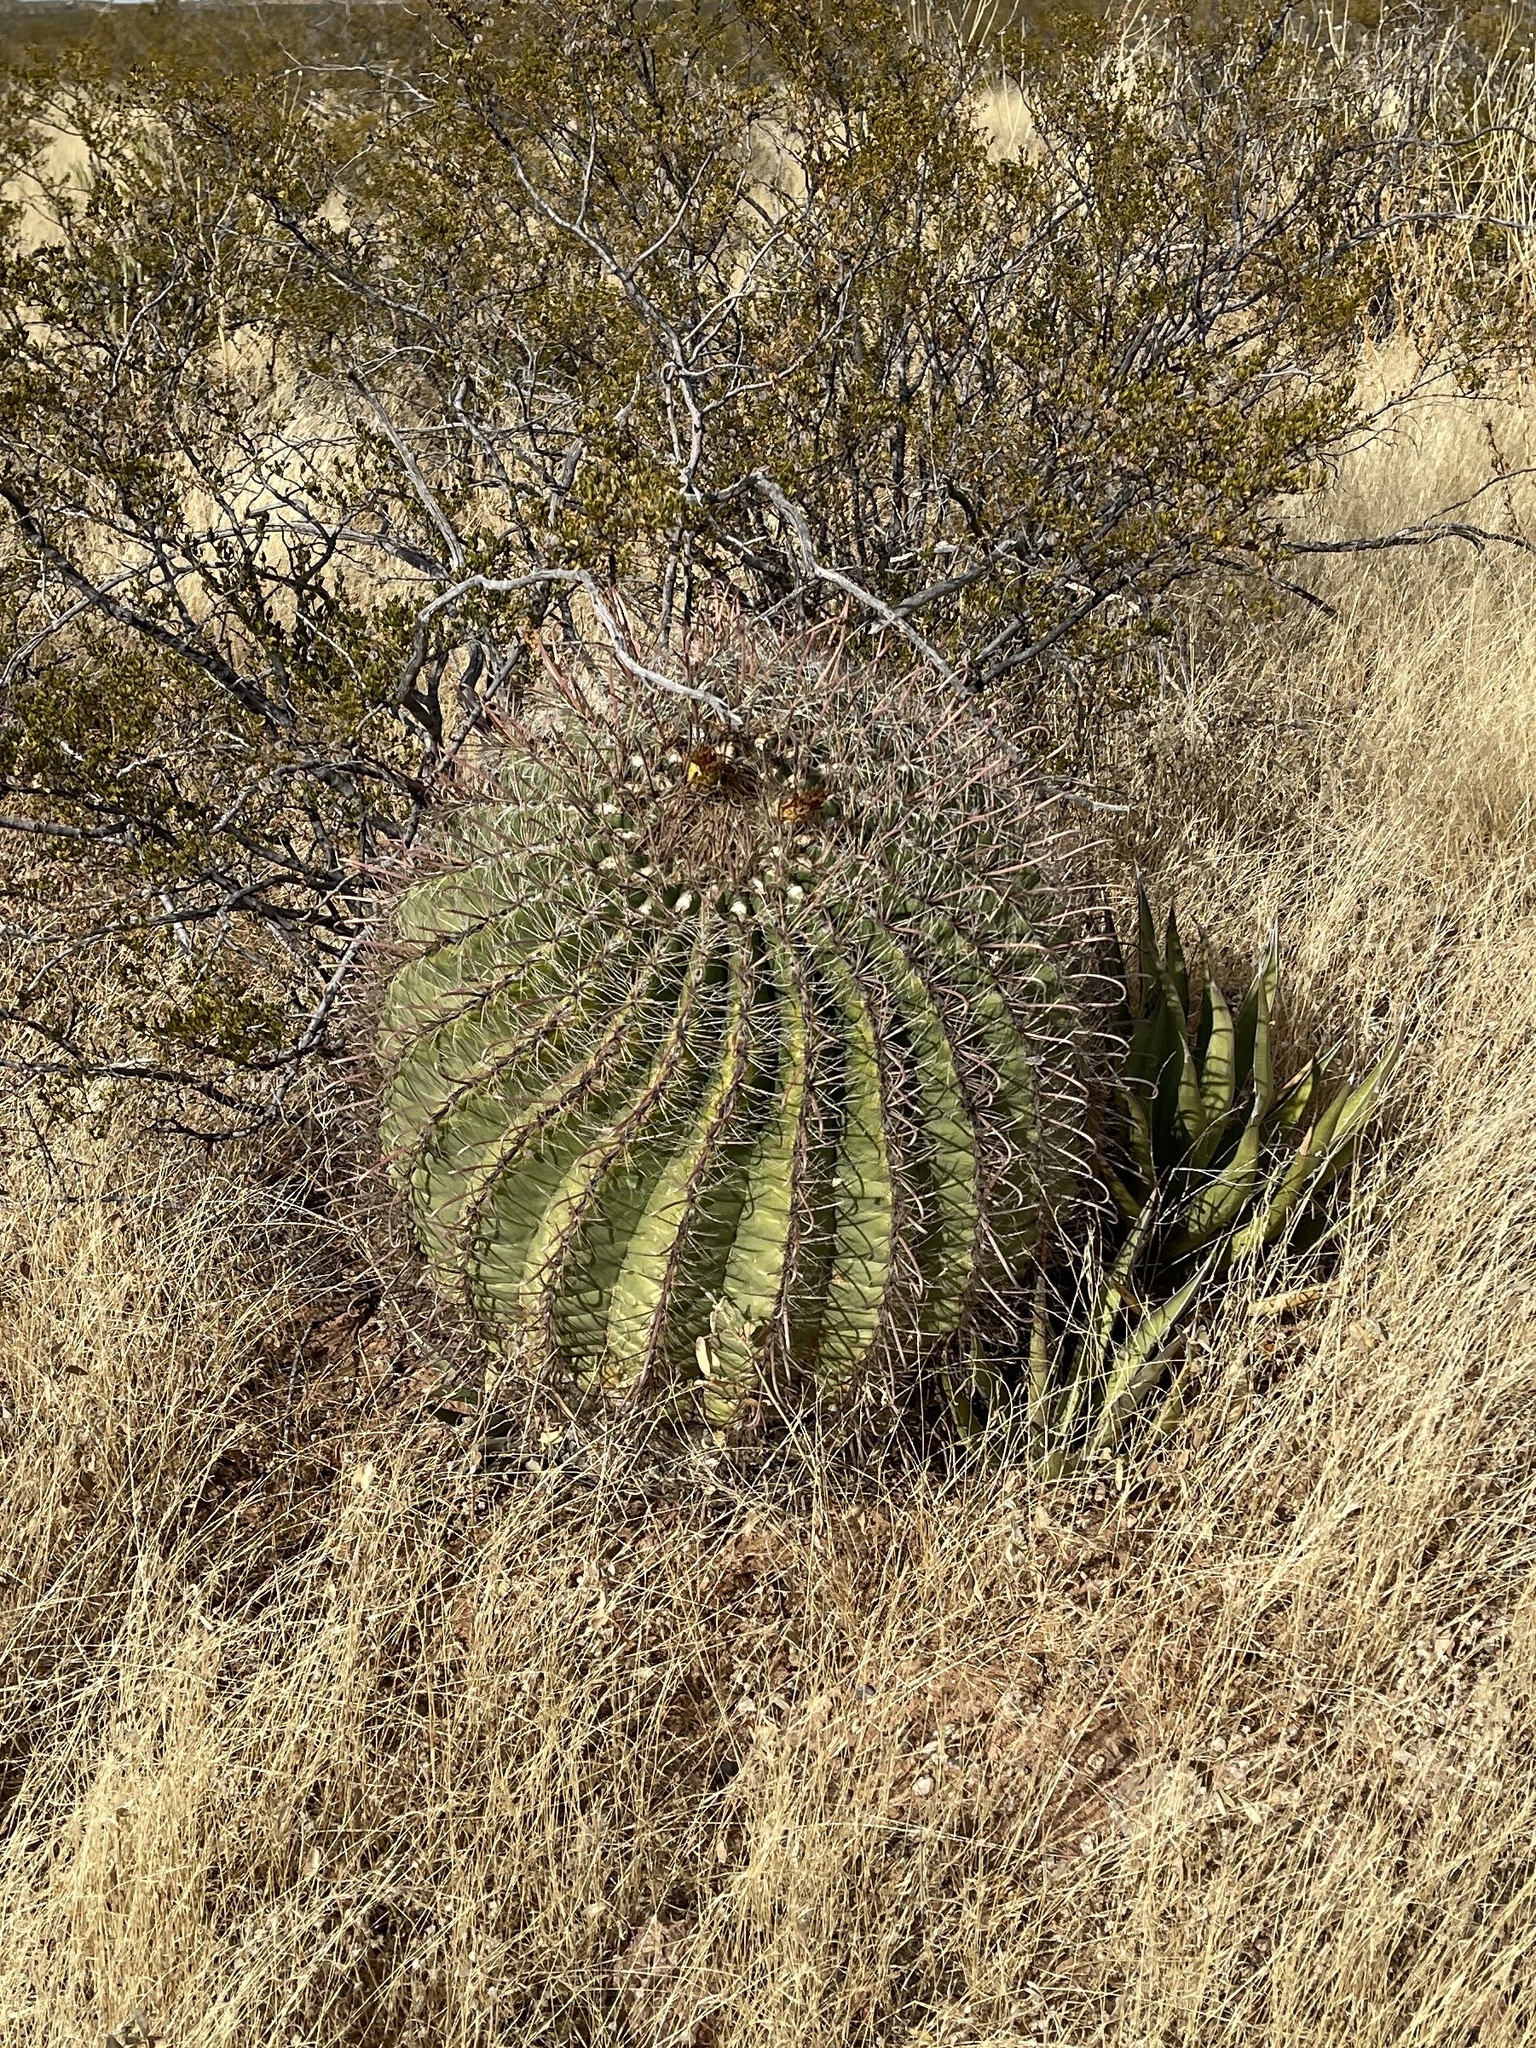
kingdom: Plantae
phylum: Tracheophyta
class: Magnoliopsida
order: Caryophyllales
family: Cactaceae
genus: Ferocactus
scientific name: Ferocactus wislizeni
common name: Candy barrel cactus
